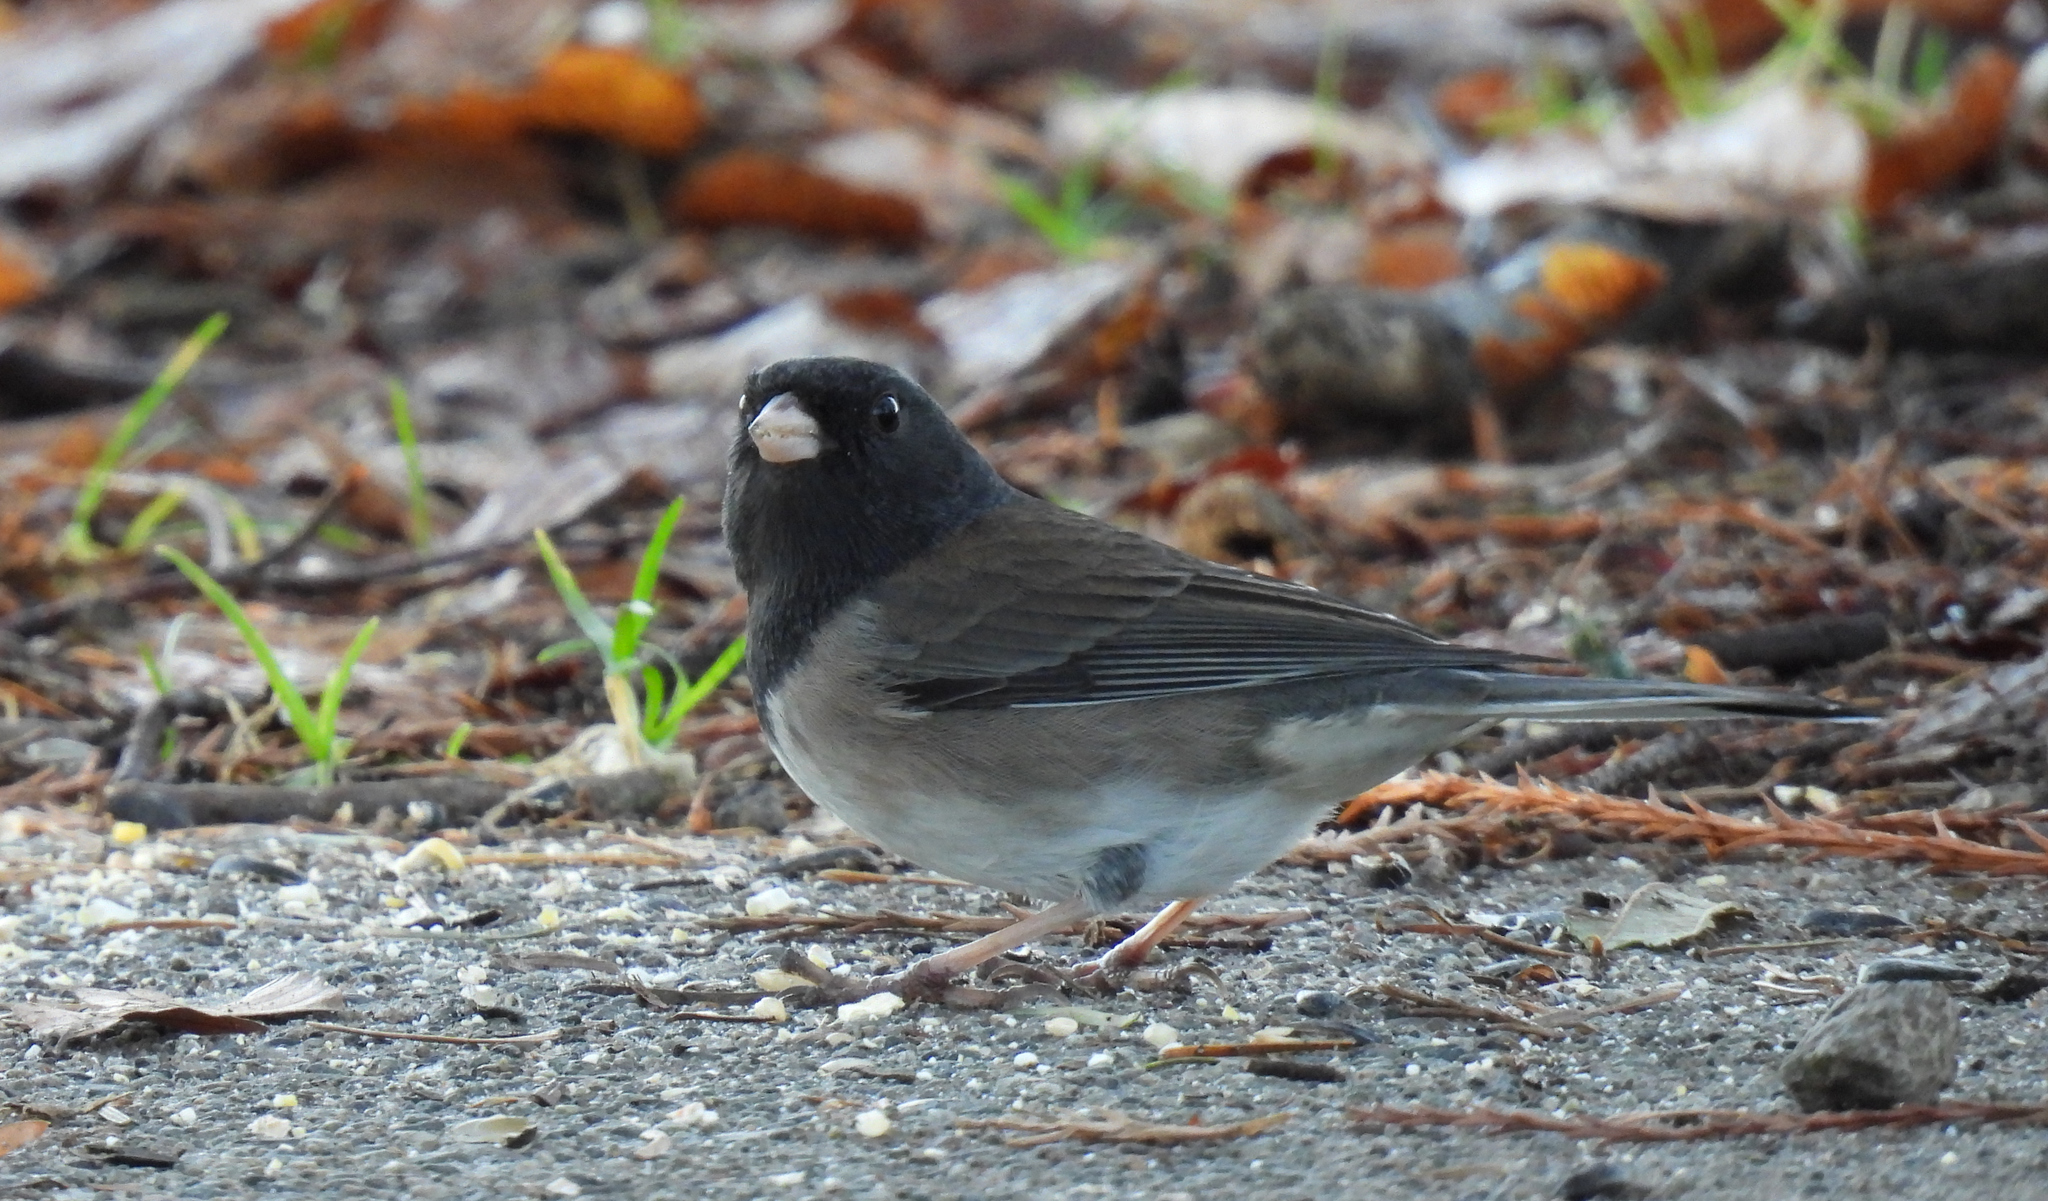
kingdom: Animalia
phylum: Chordata
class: Aves
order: Passeriformes
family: Passerellidae
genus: Junco
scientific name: Junco hyemalis
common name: Dark-eyed junco
